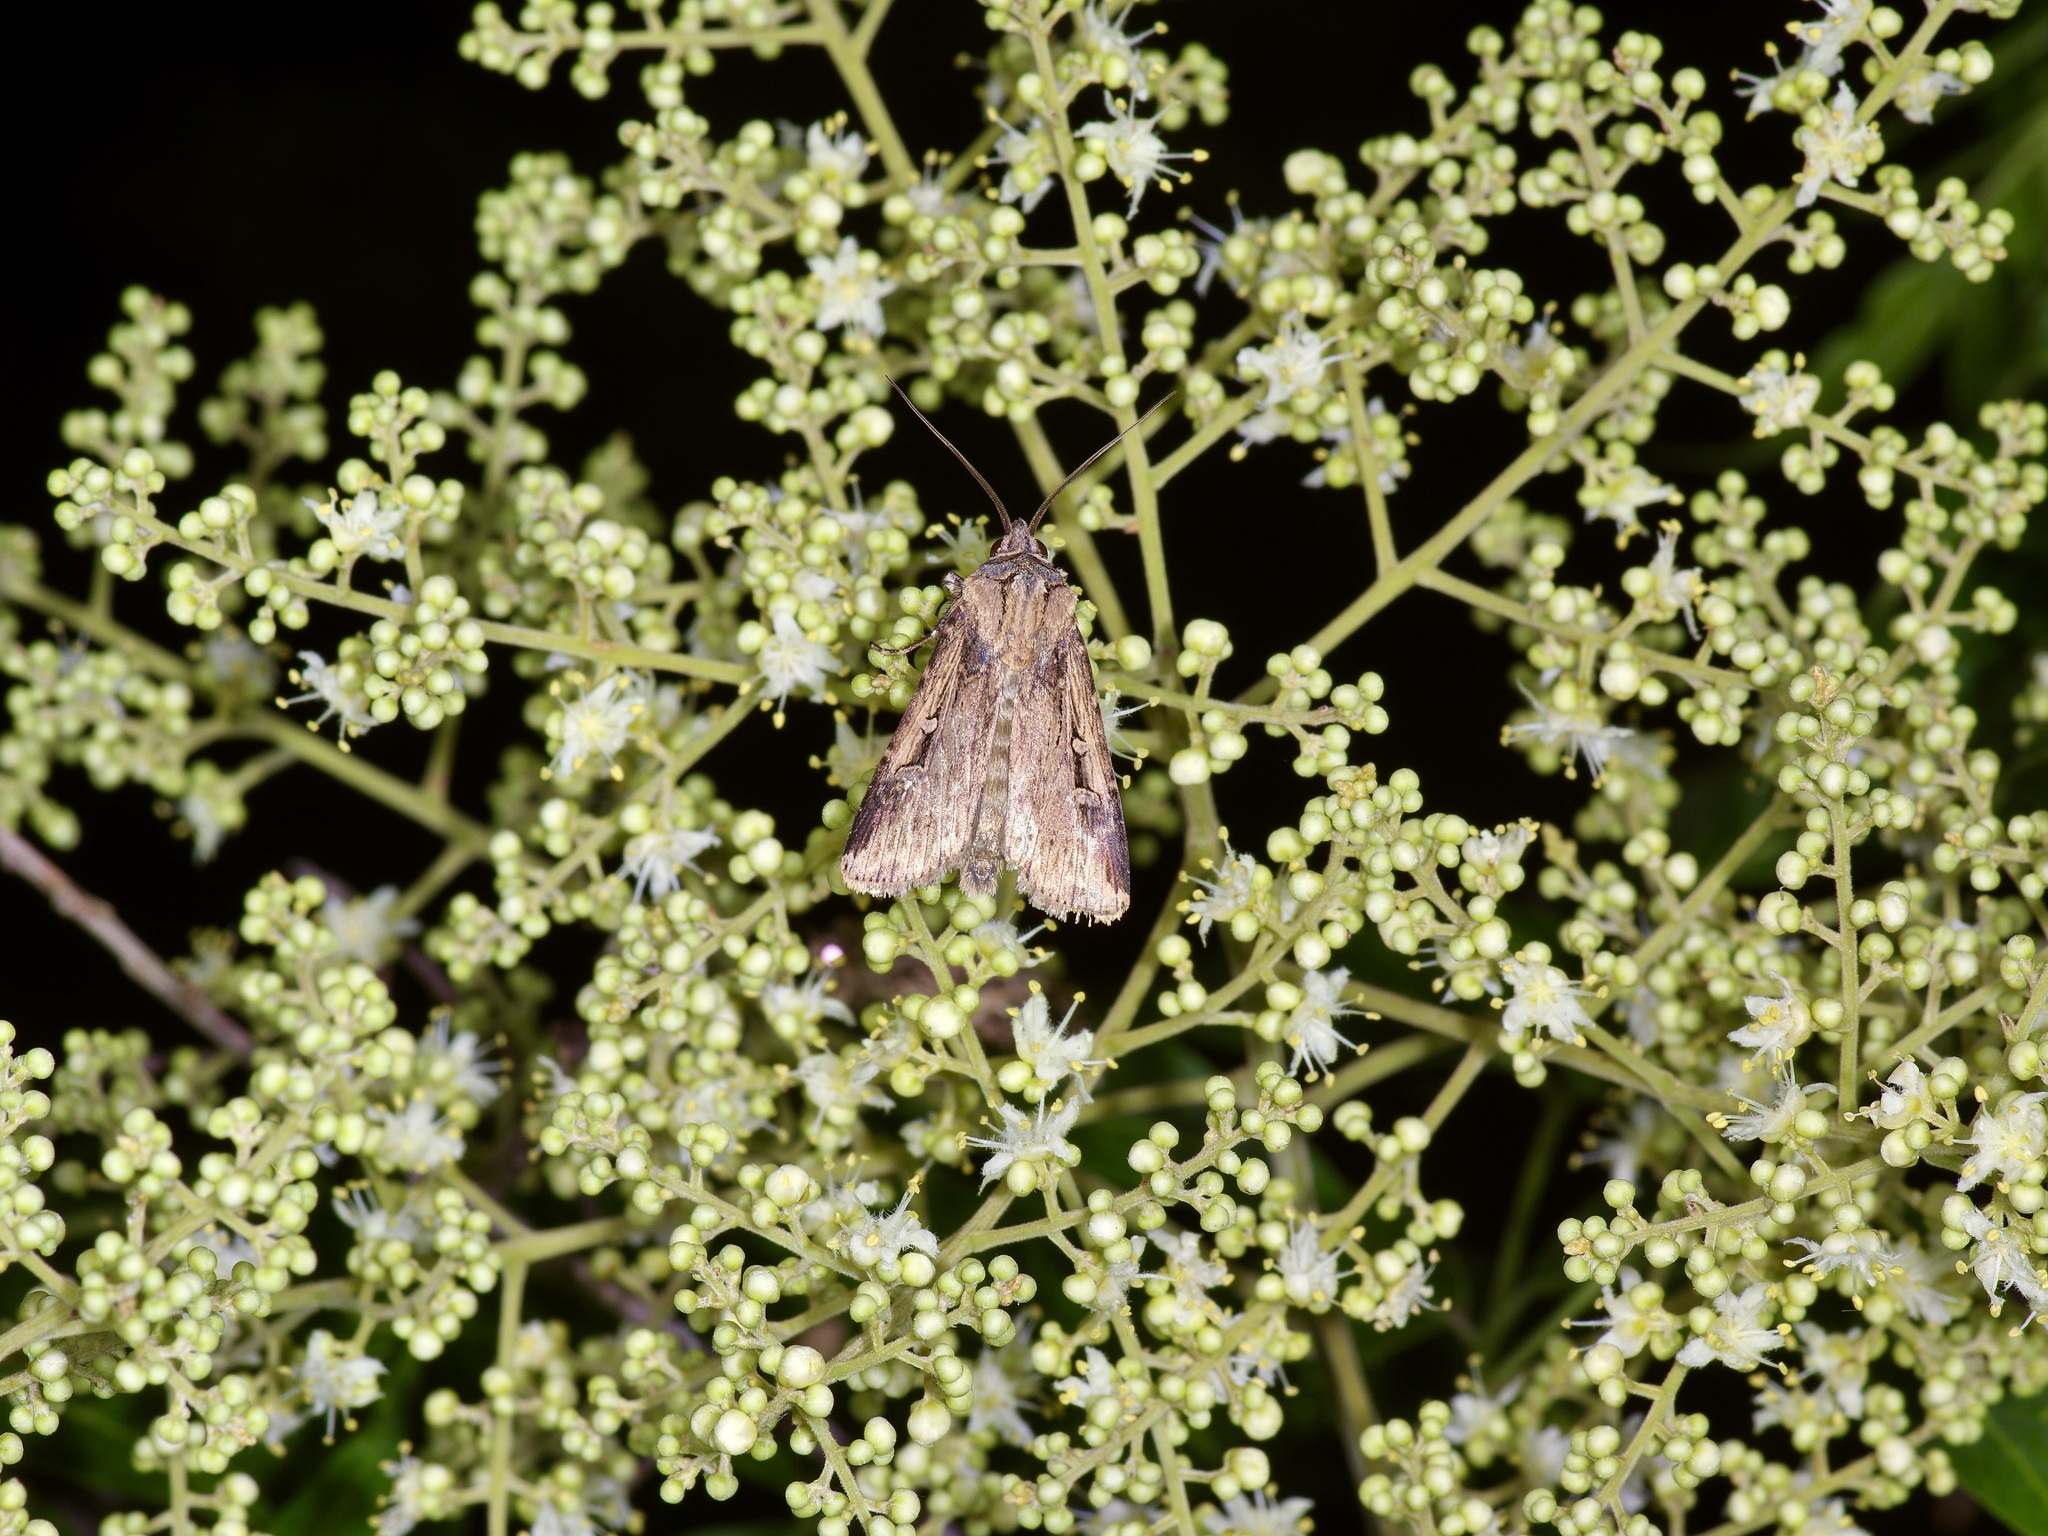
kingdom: Animalia
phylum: Arthropoda
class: Insecta
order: Lepidoptera
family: Noctuidae
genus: Feltia
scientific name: Feltia subterranea
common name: Granulate cutworm
